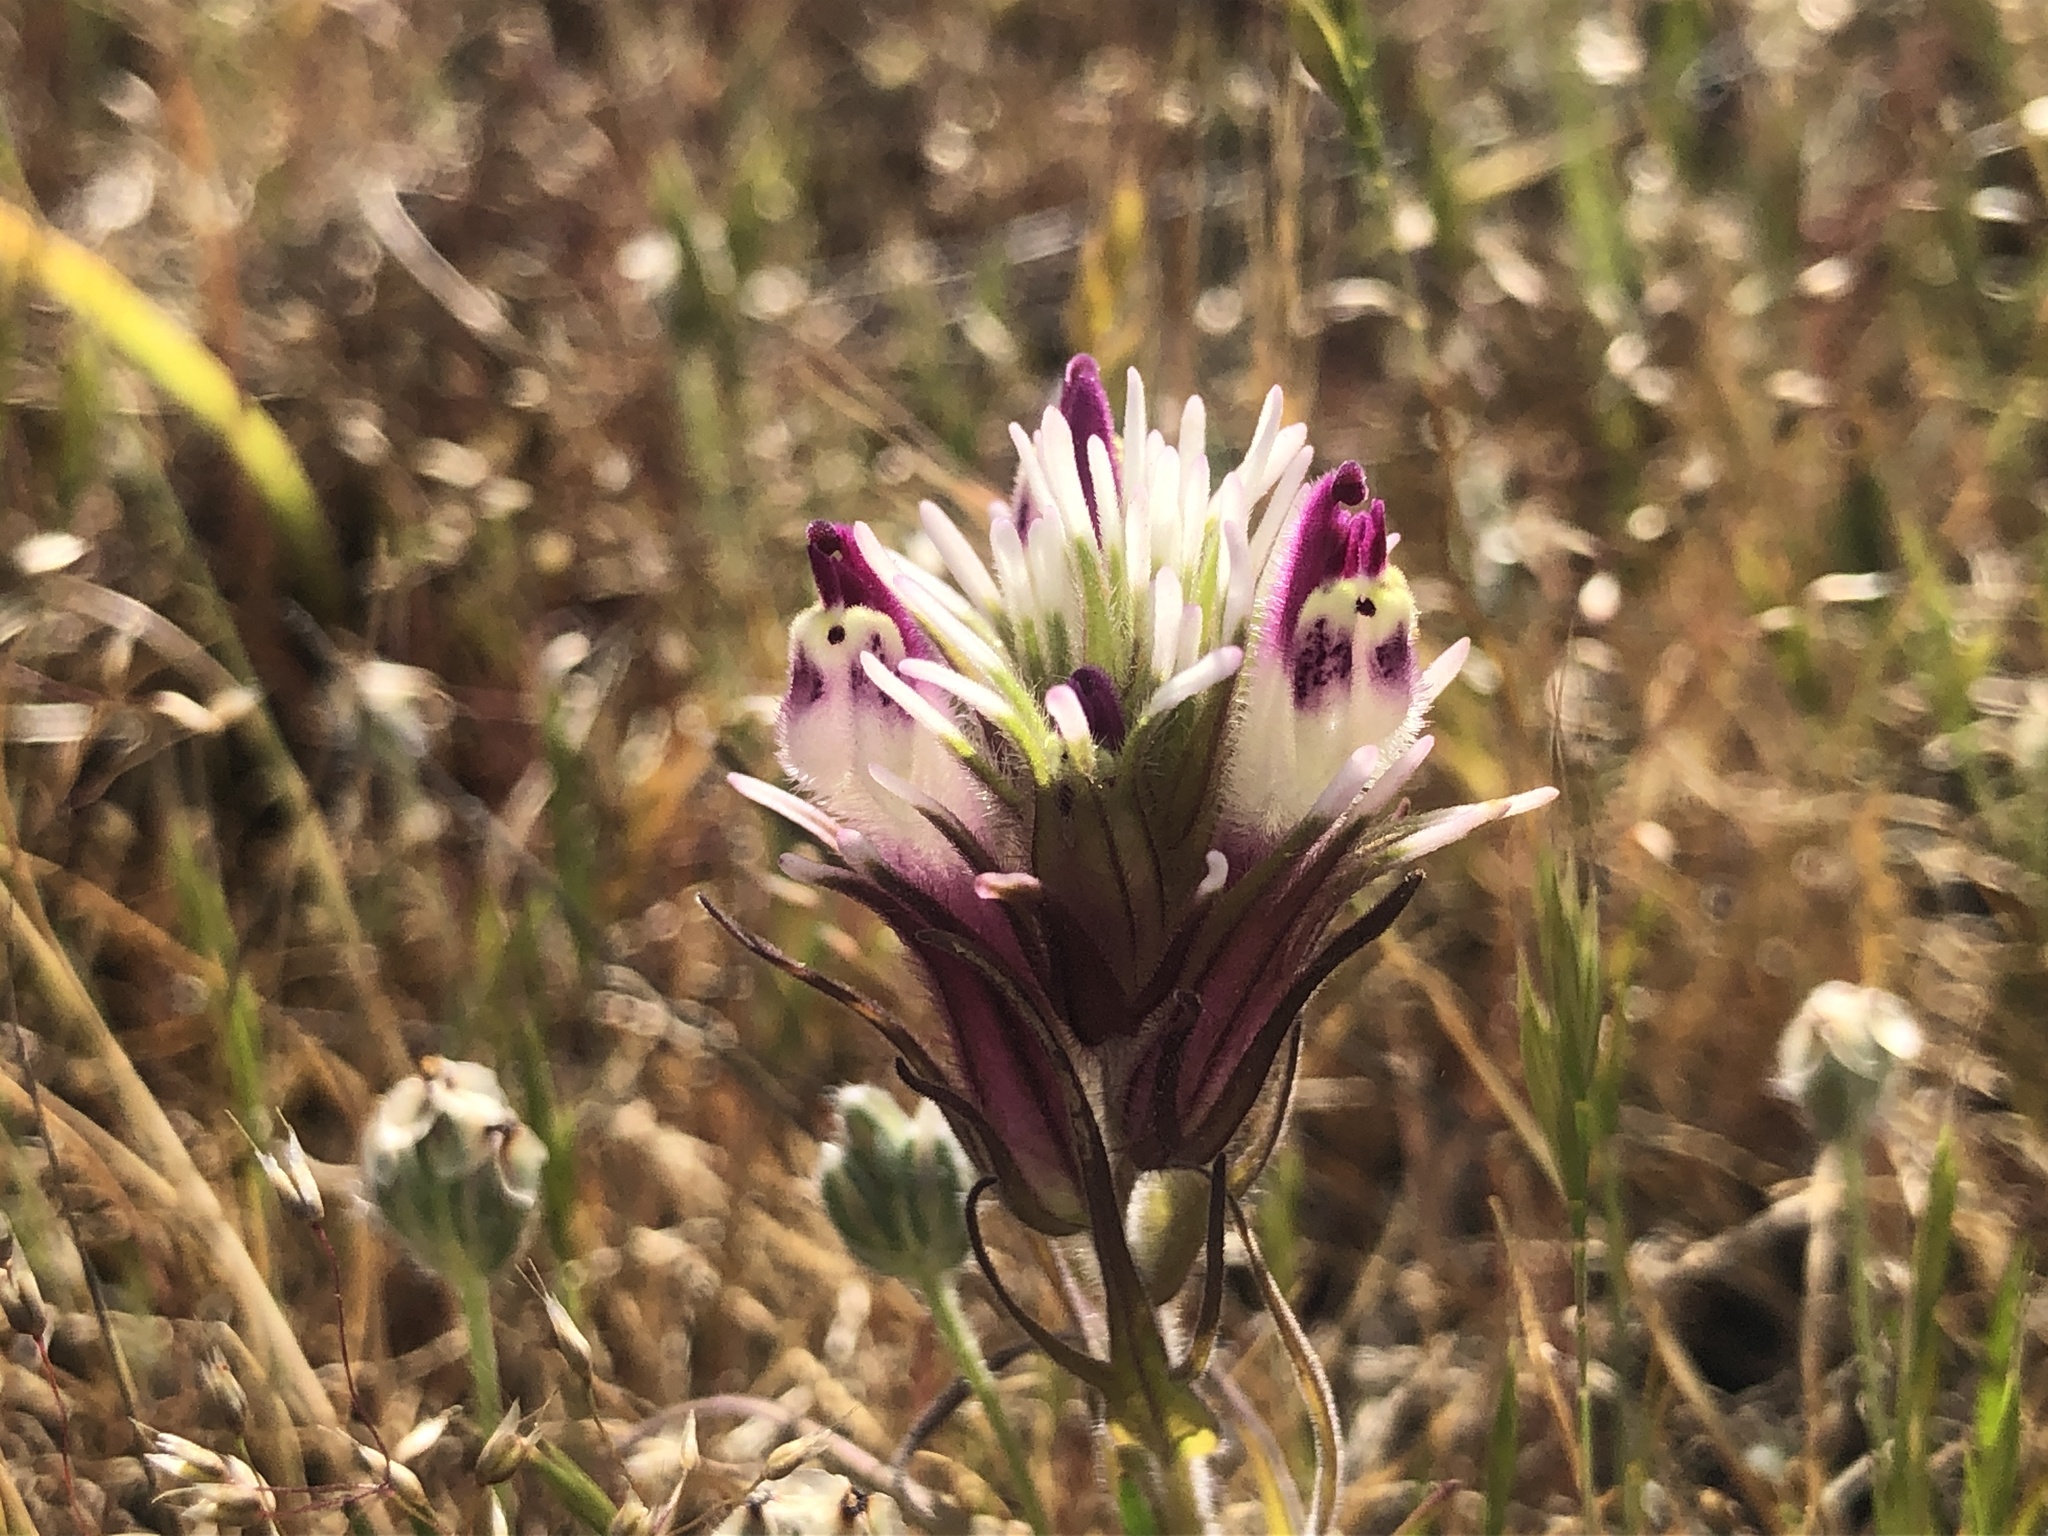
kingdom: Plantae
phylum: Tracheophyta
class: Magnoliopsida
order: Lamiales
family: Orobanchaceae
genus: Castilleja
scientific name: Castilleja densiflora
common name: Dense-flower indian paintbrush
